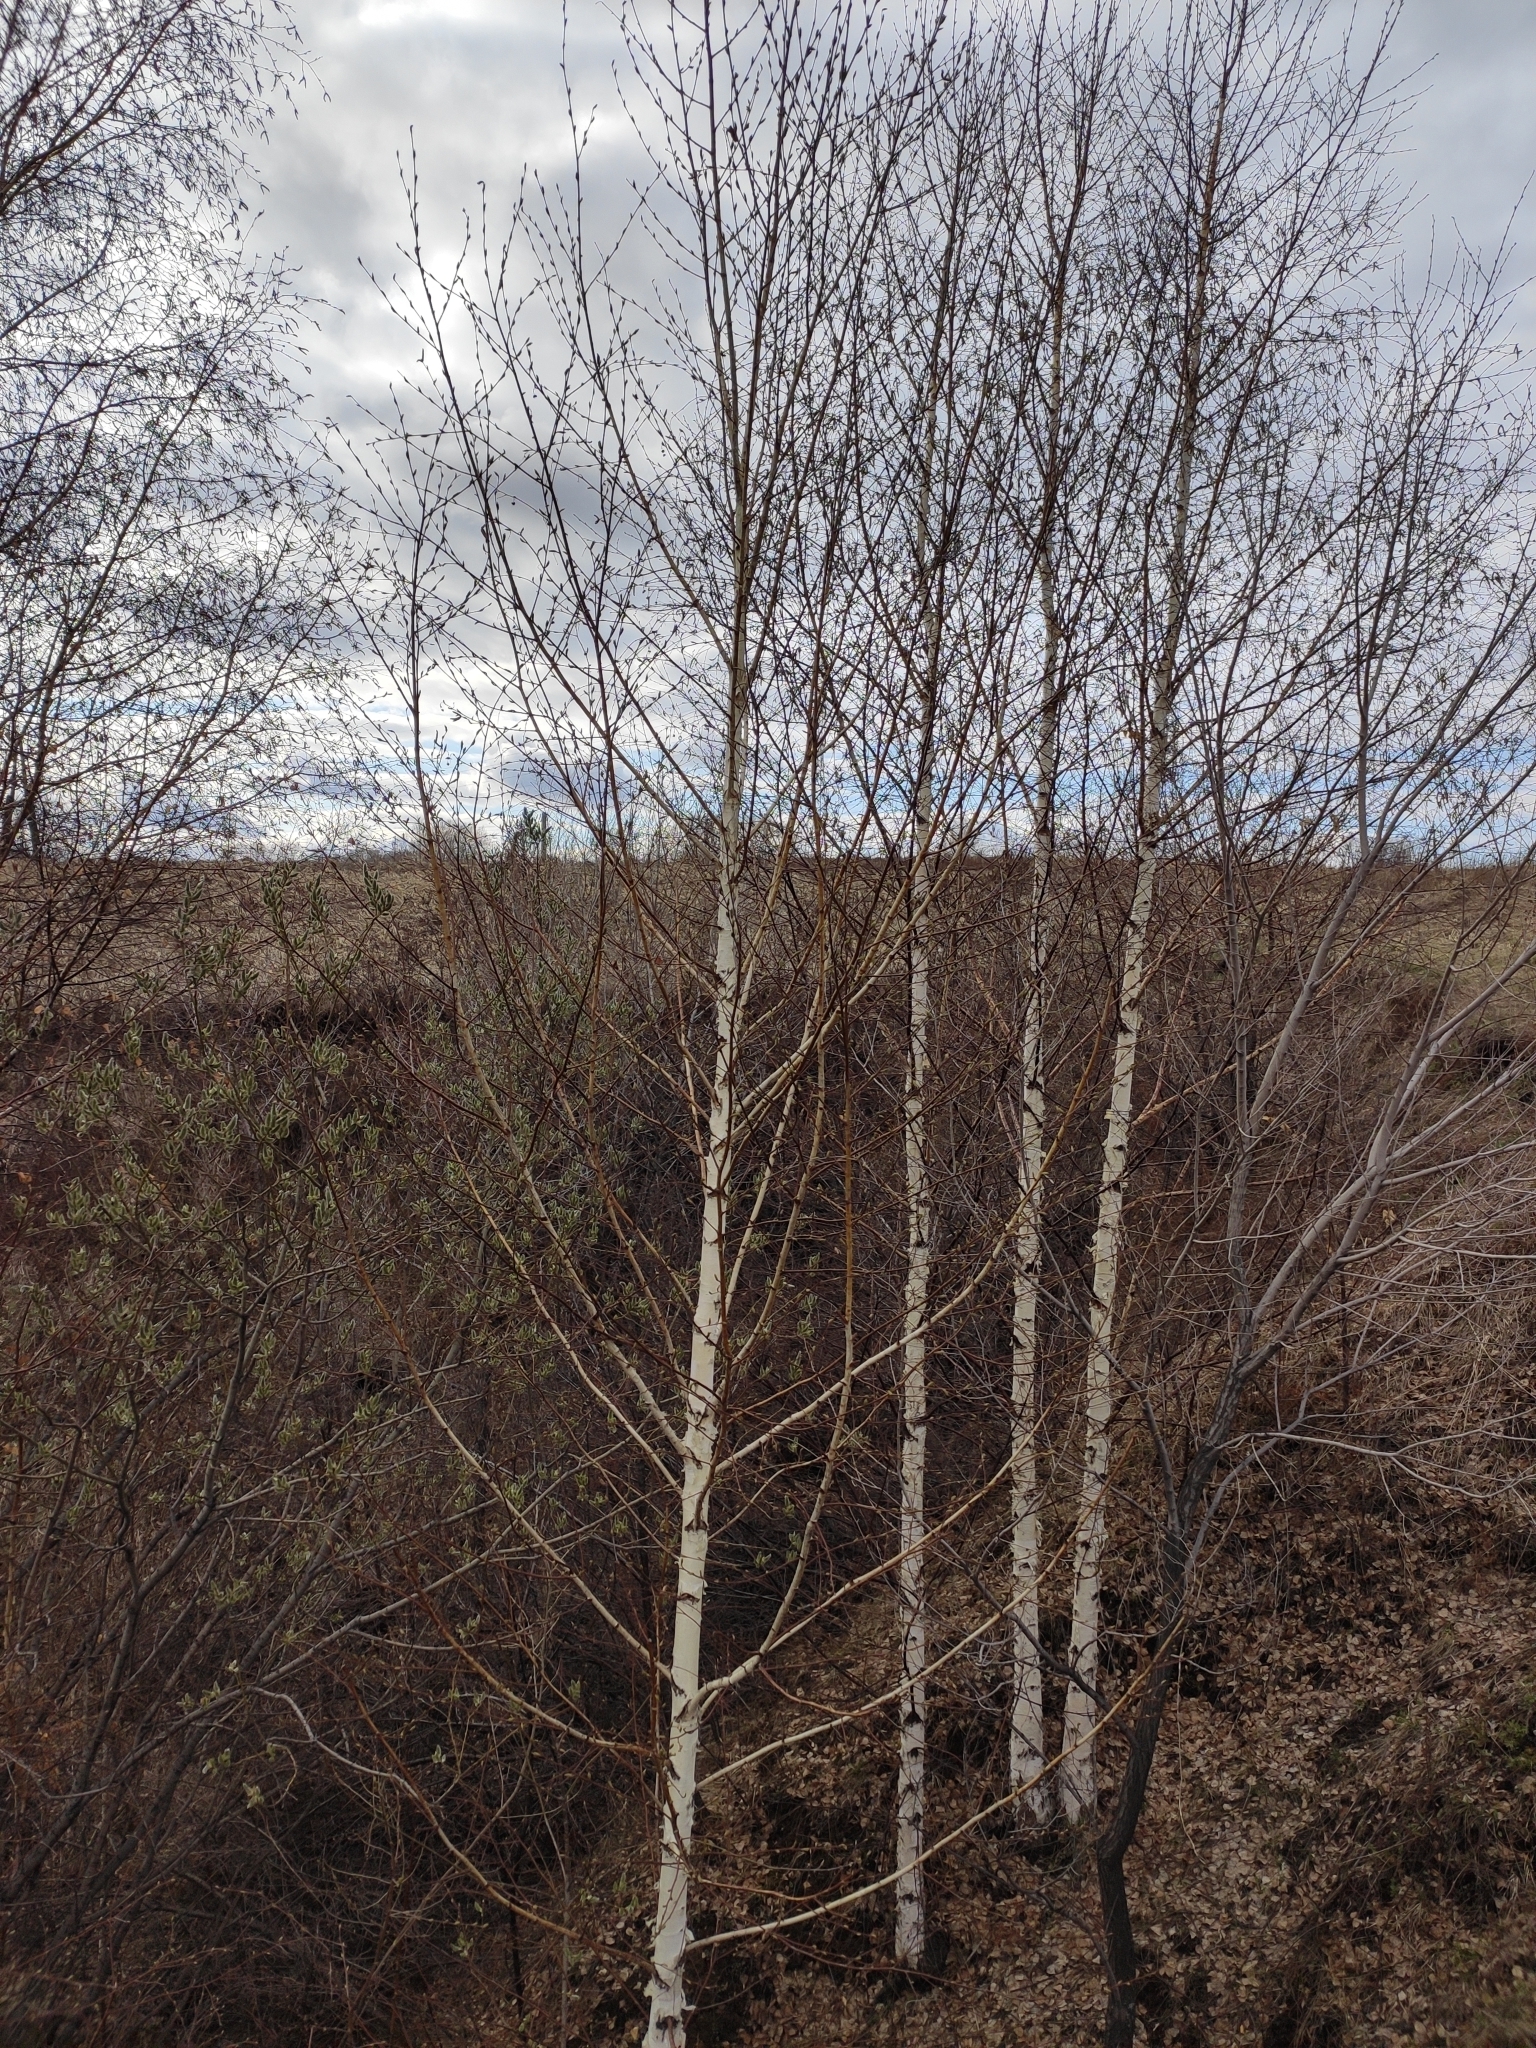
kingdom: Plantae
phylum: Tracheophyta
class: Magnoliopsida
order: Fagales
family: Betulaceae
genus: Betula
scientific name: Betula pendula
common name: Silver birch
